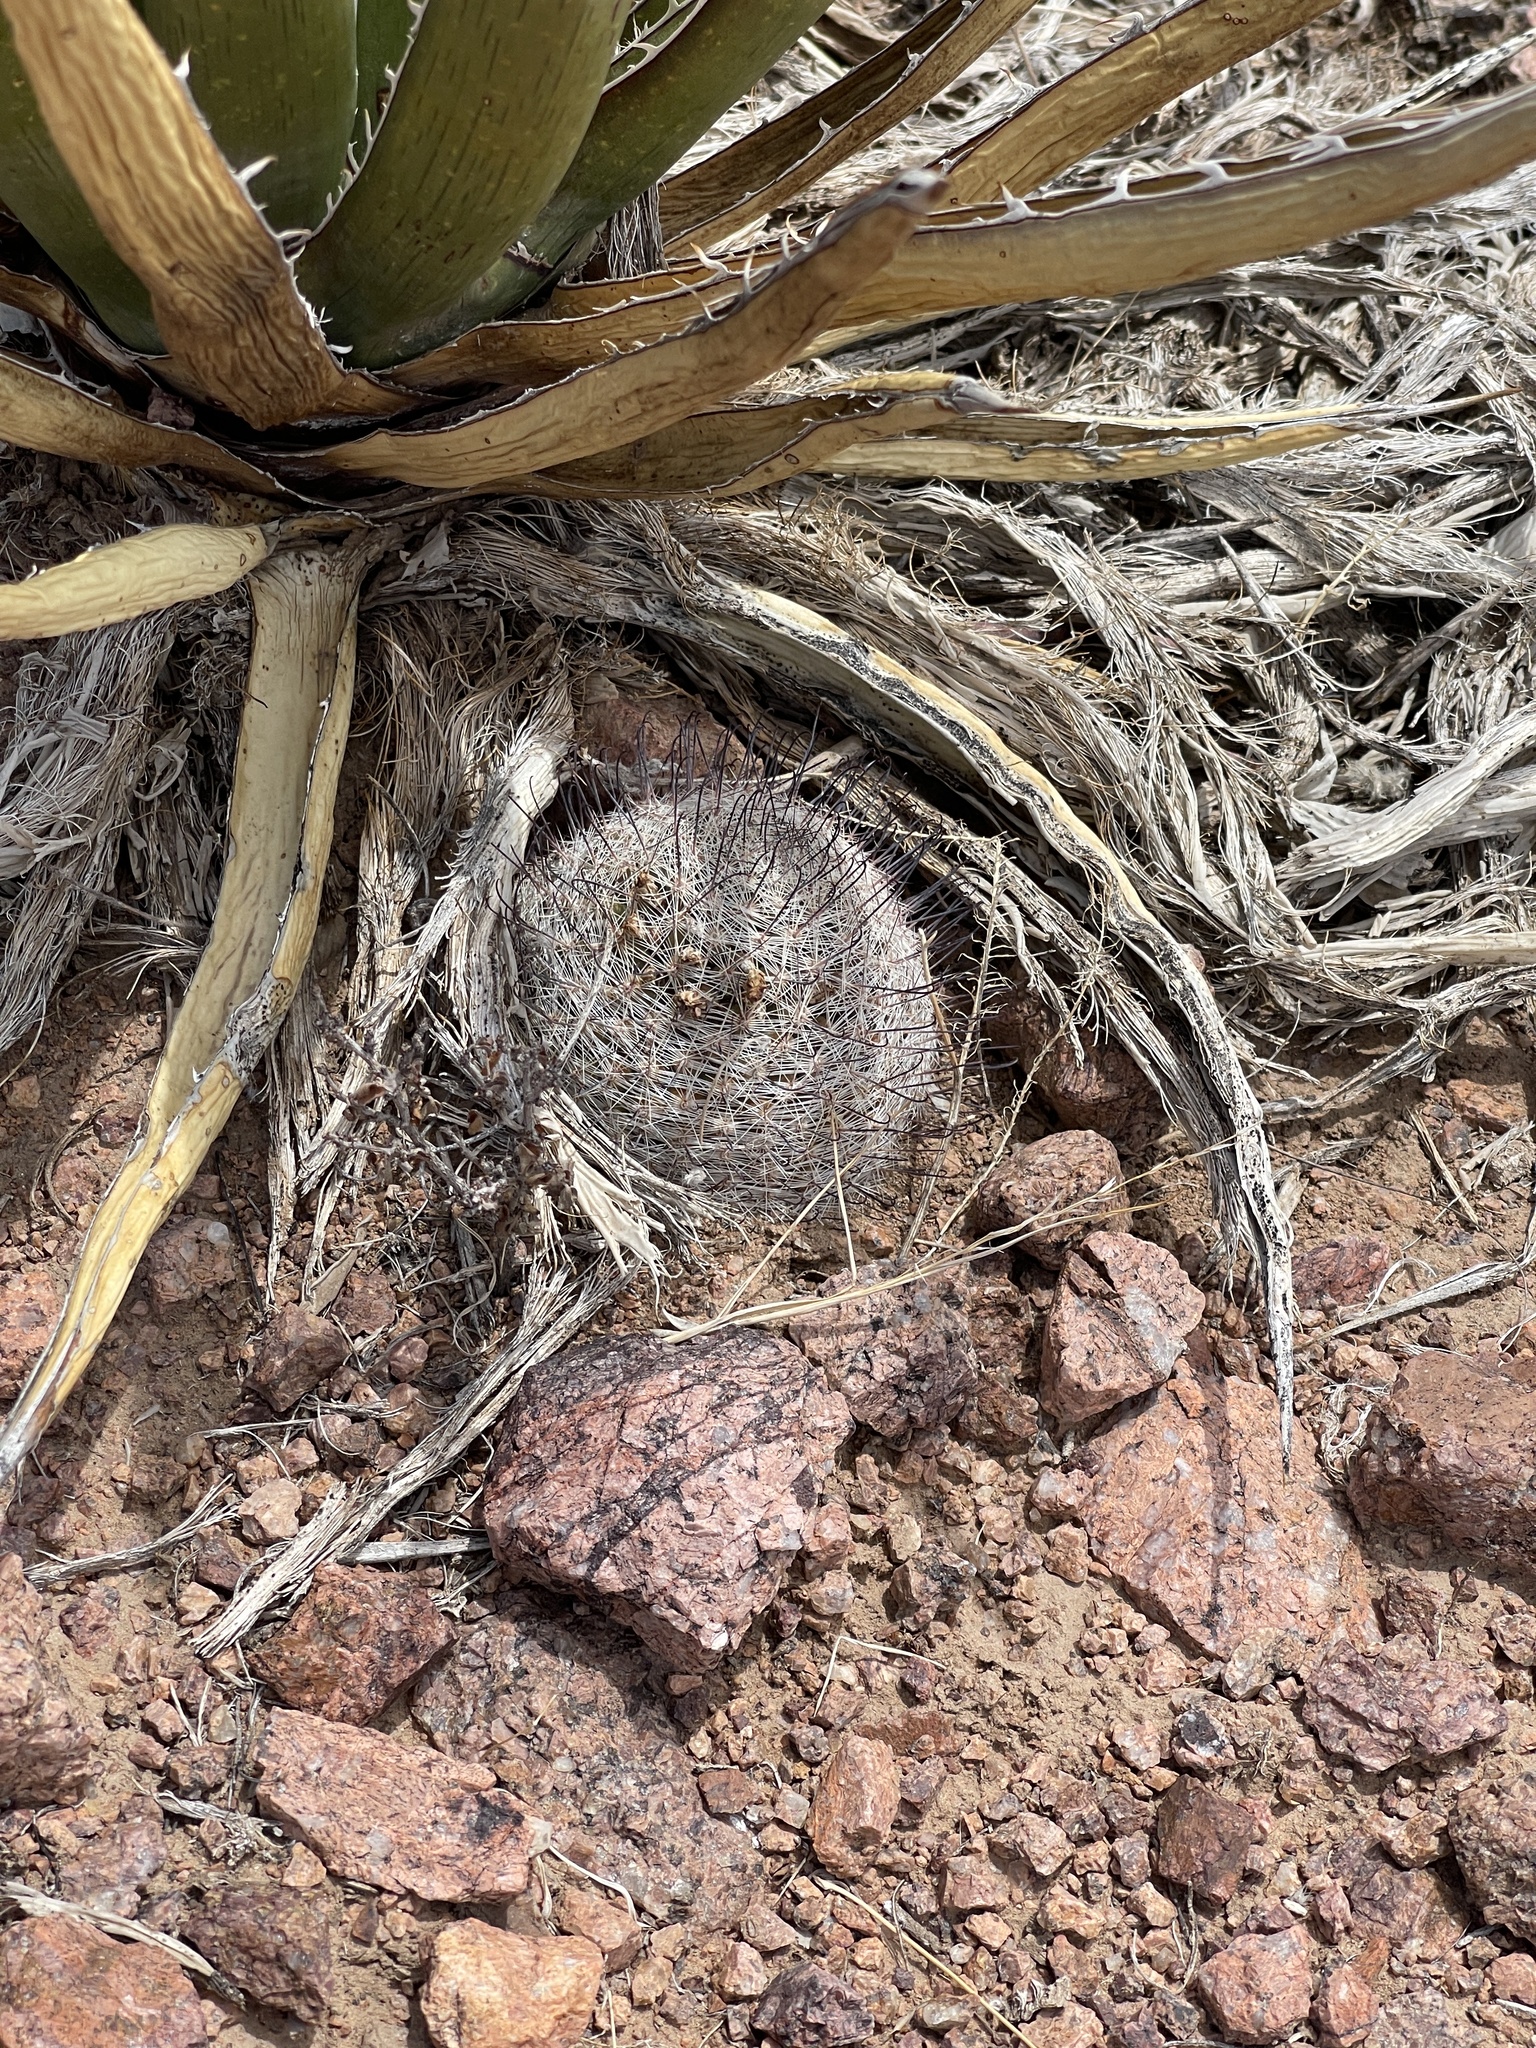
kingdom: Plantae
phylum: Tracheophyta
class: Magnoliopsida
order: Caryophyllales
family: Cactaceae
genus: Cochemiea
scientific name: Cochemiea grahamii
